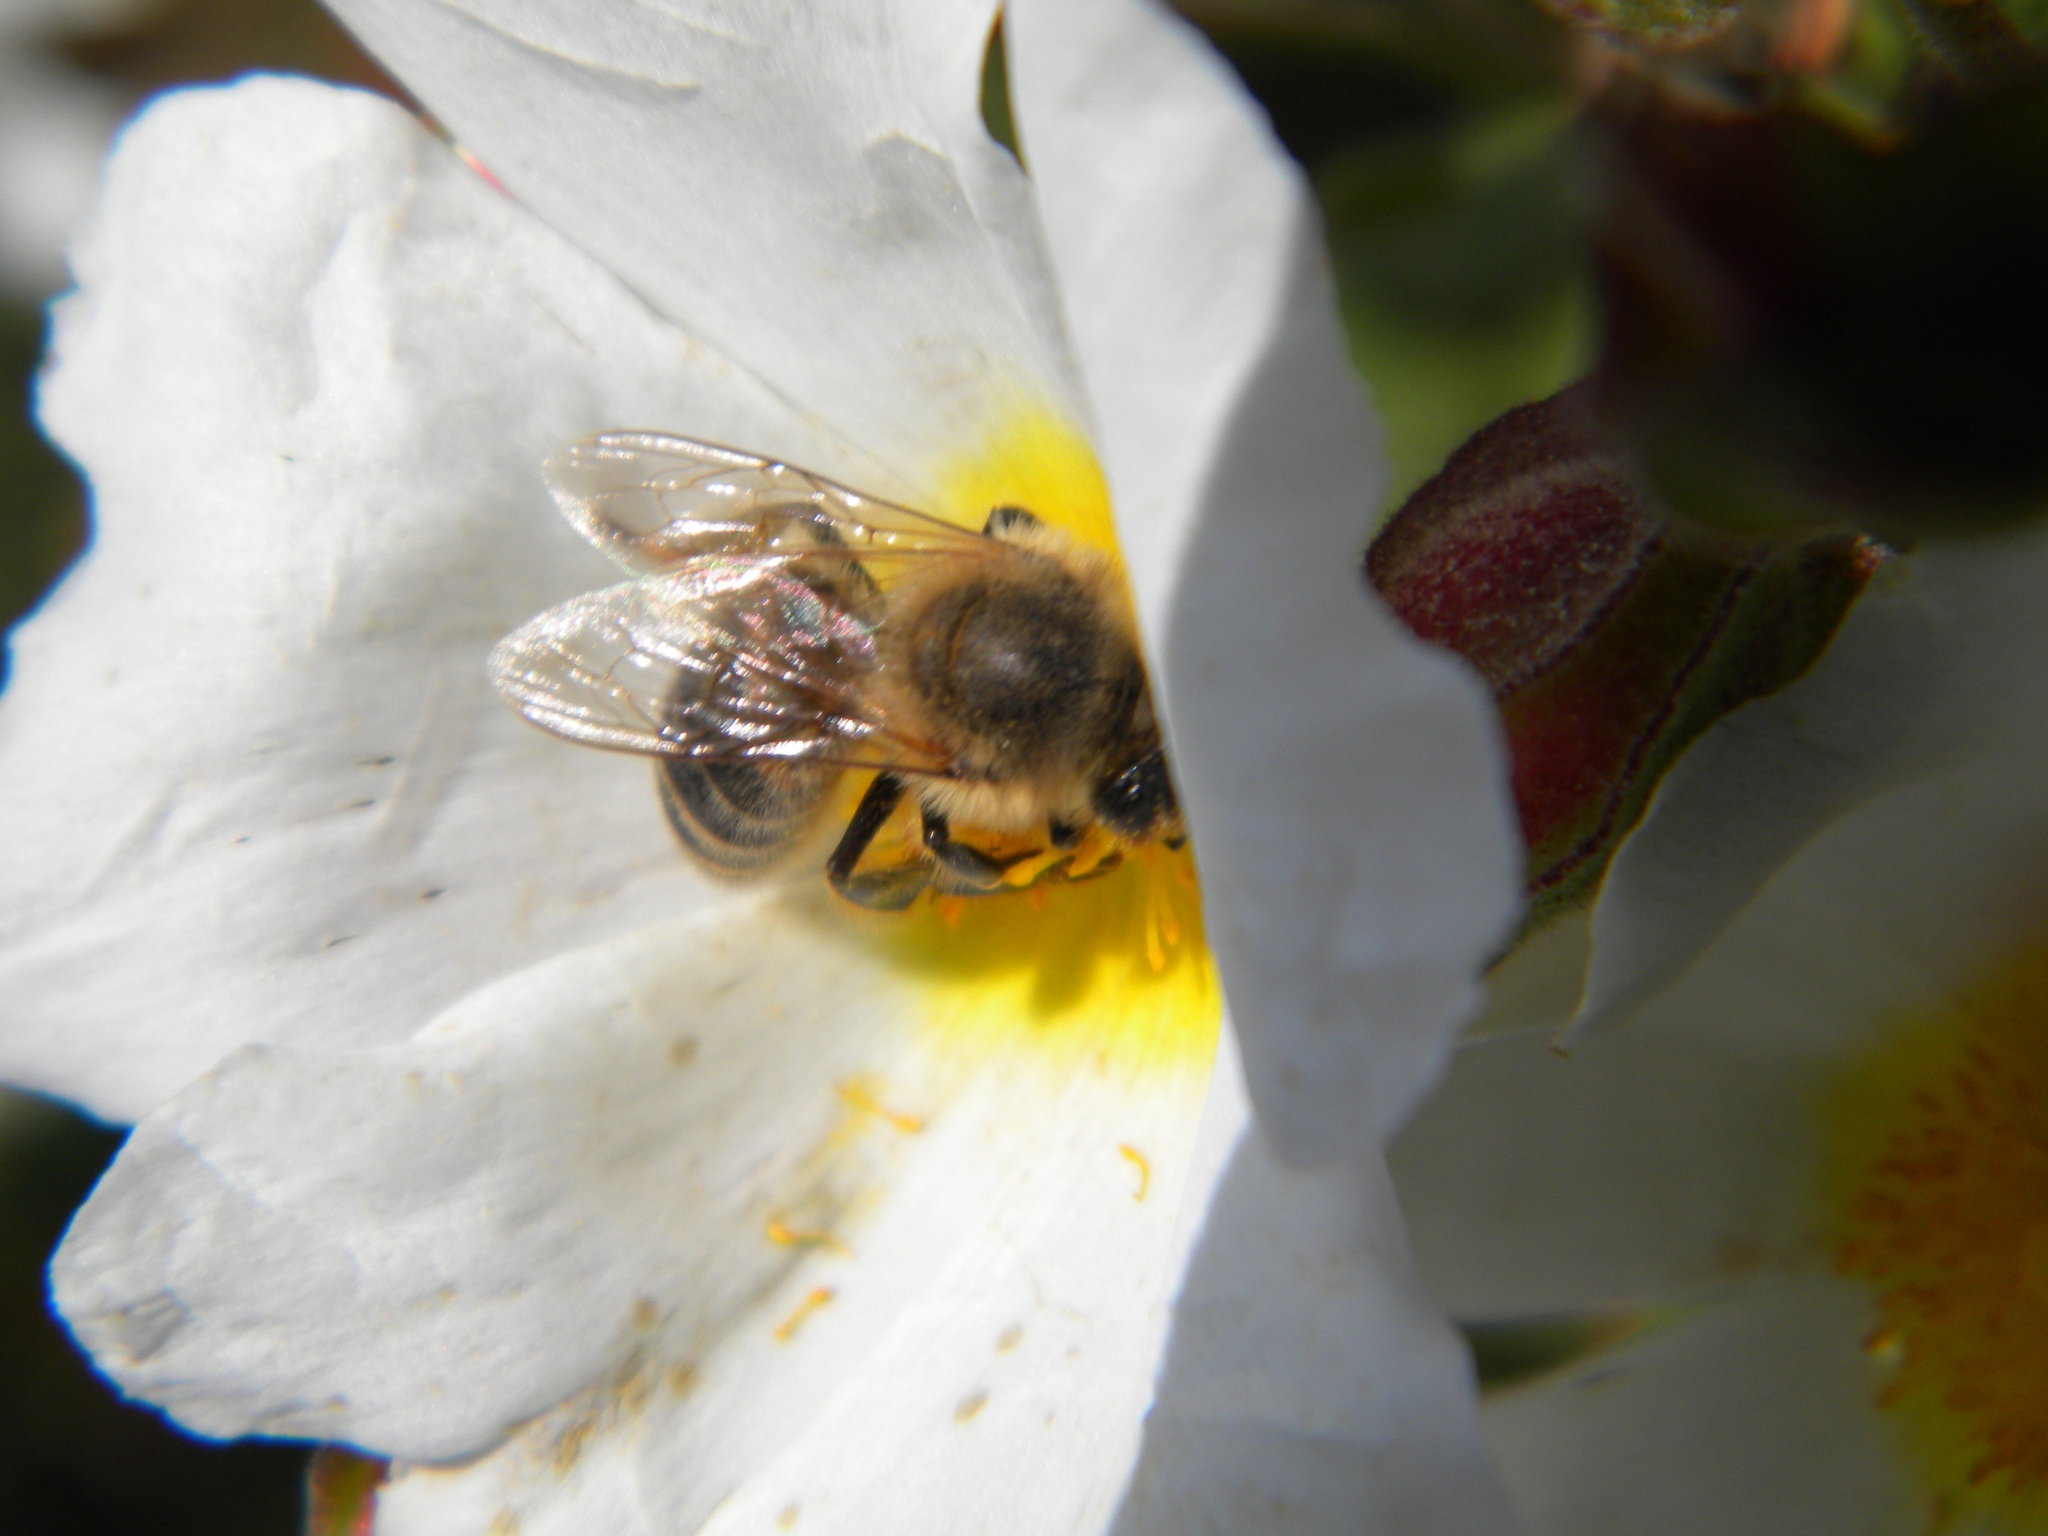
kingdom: Animalia
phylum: Arthropoda
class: Insecta
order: Hymenoptera
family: Apidae
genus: Apis
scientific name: Apis mellifera
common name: Honey bee
